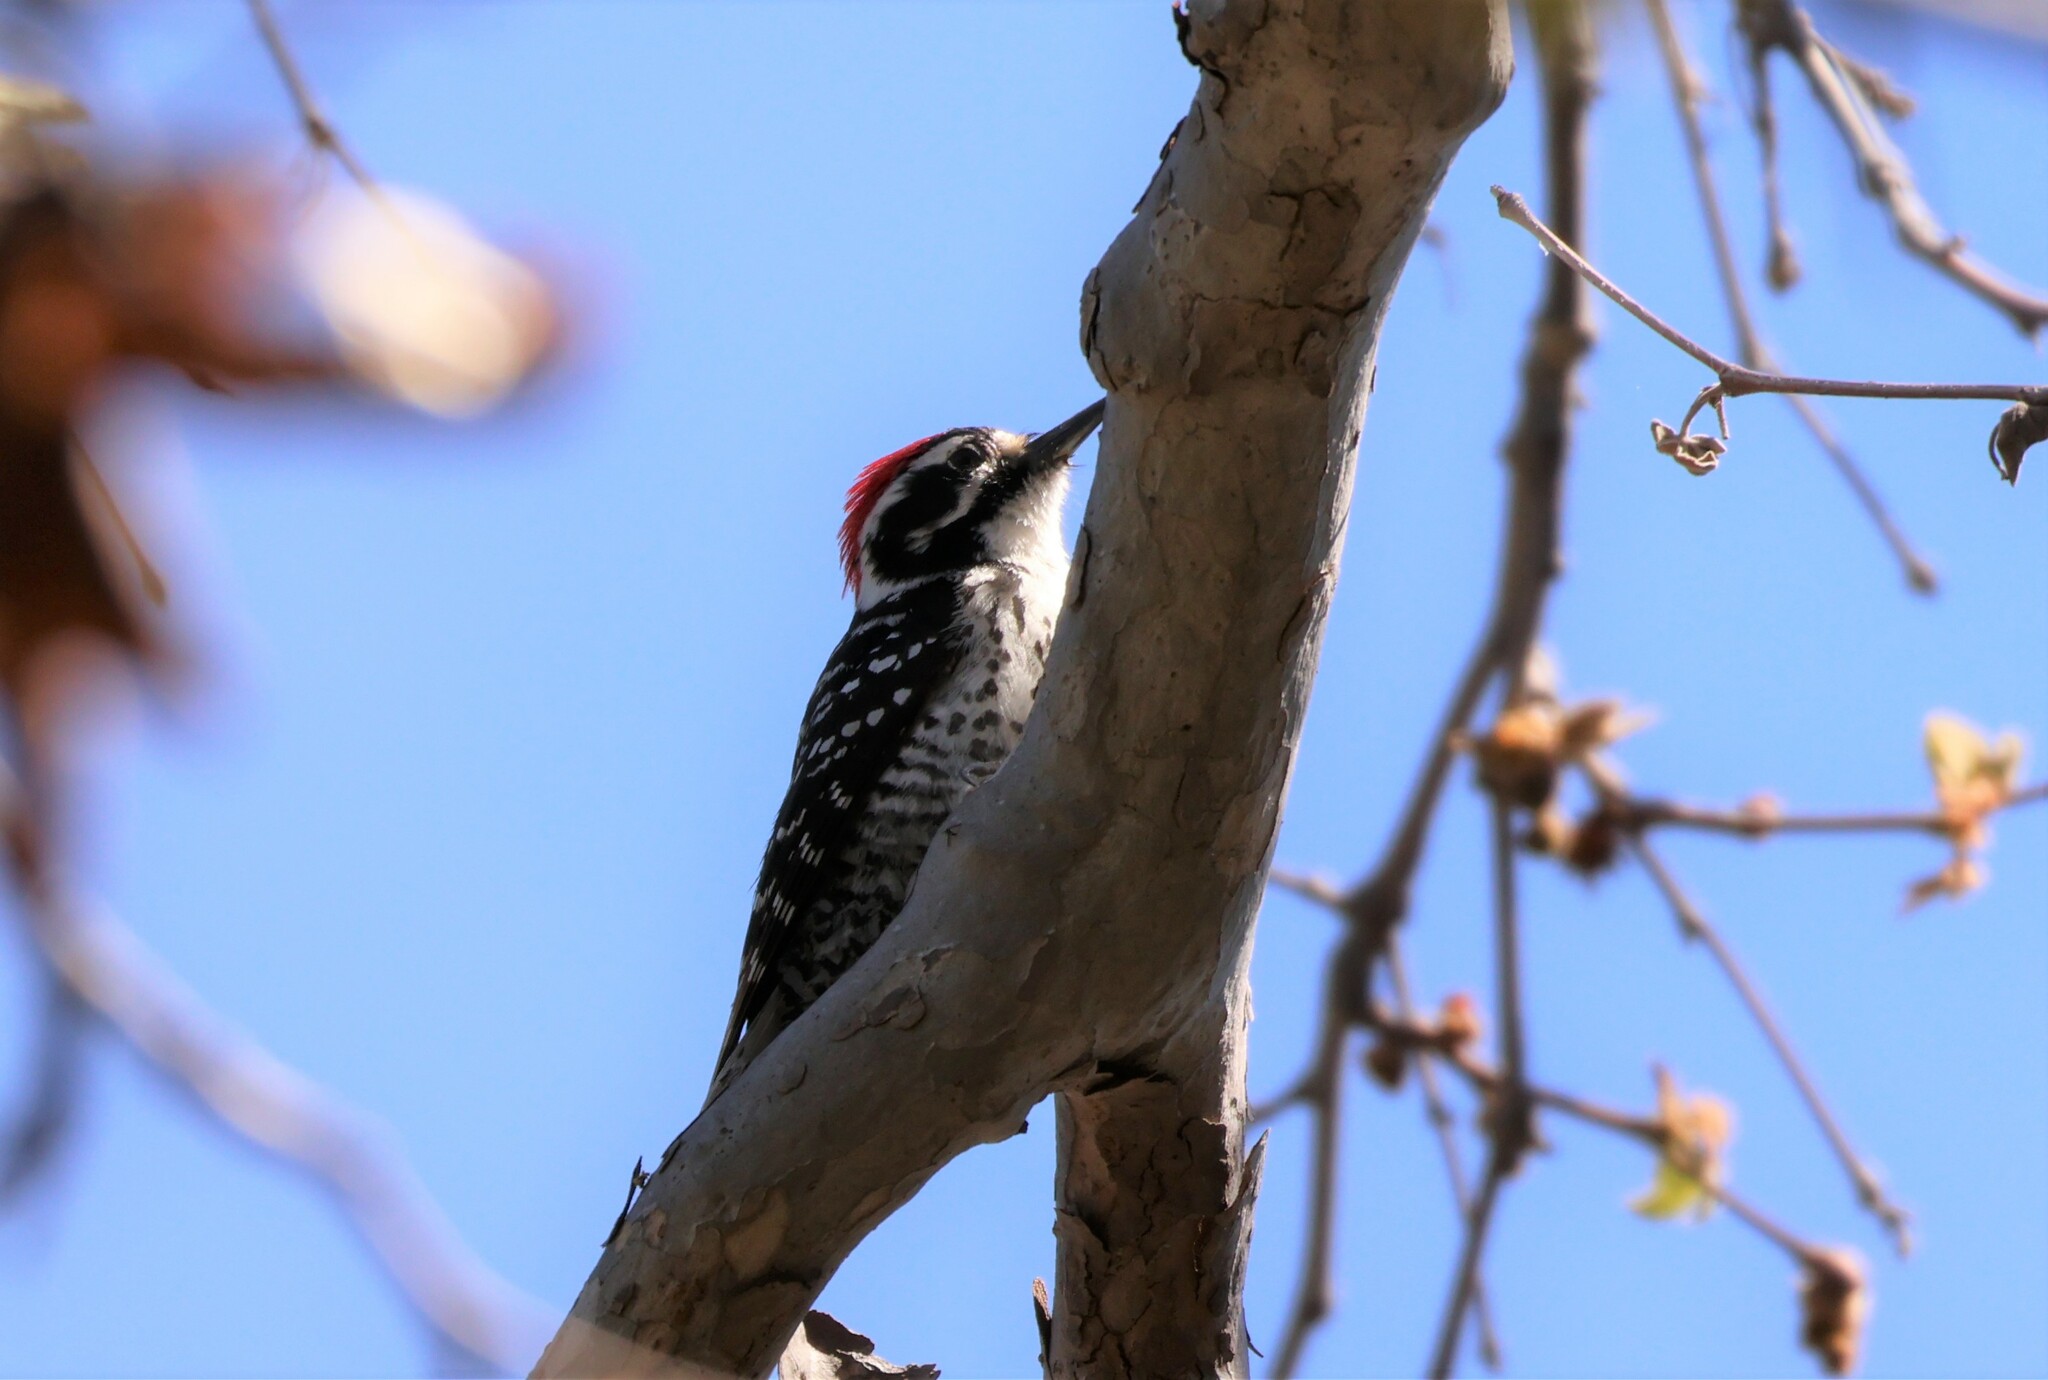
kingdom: Animalia
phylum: Chordata
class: Aves
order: Piciformes
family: Picidae
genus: Dryobates
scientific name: Dryobates nuttallii
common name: Nuttall's woodpecker
